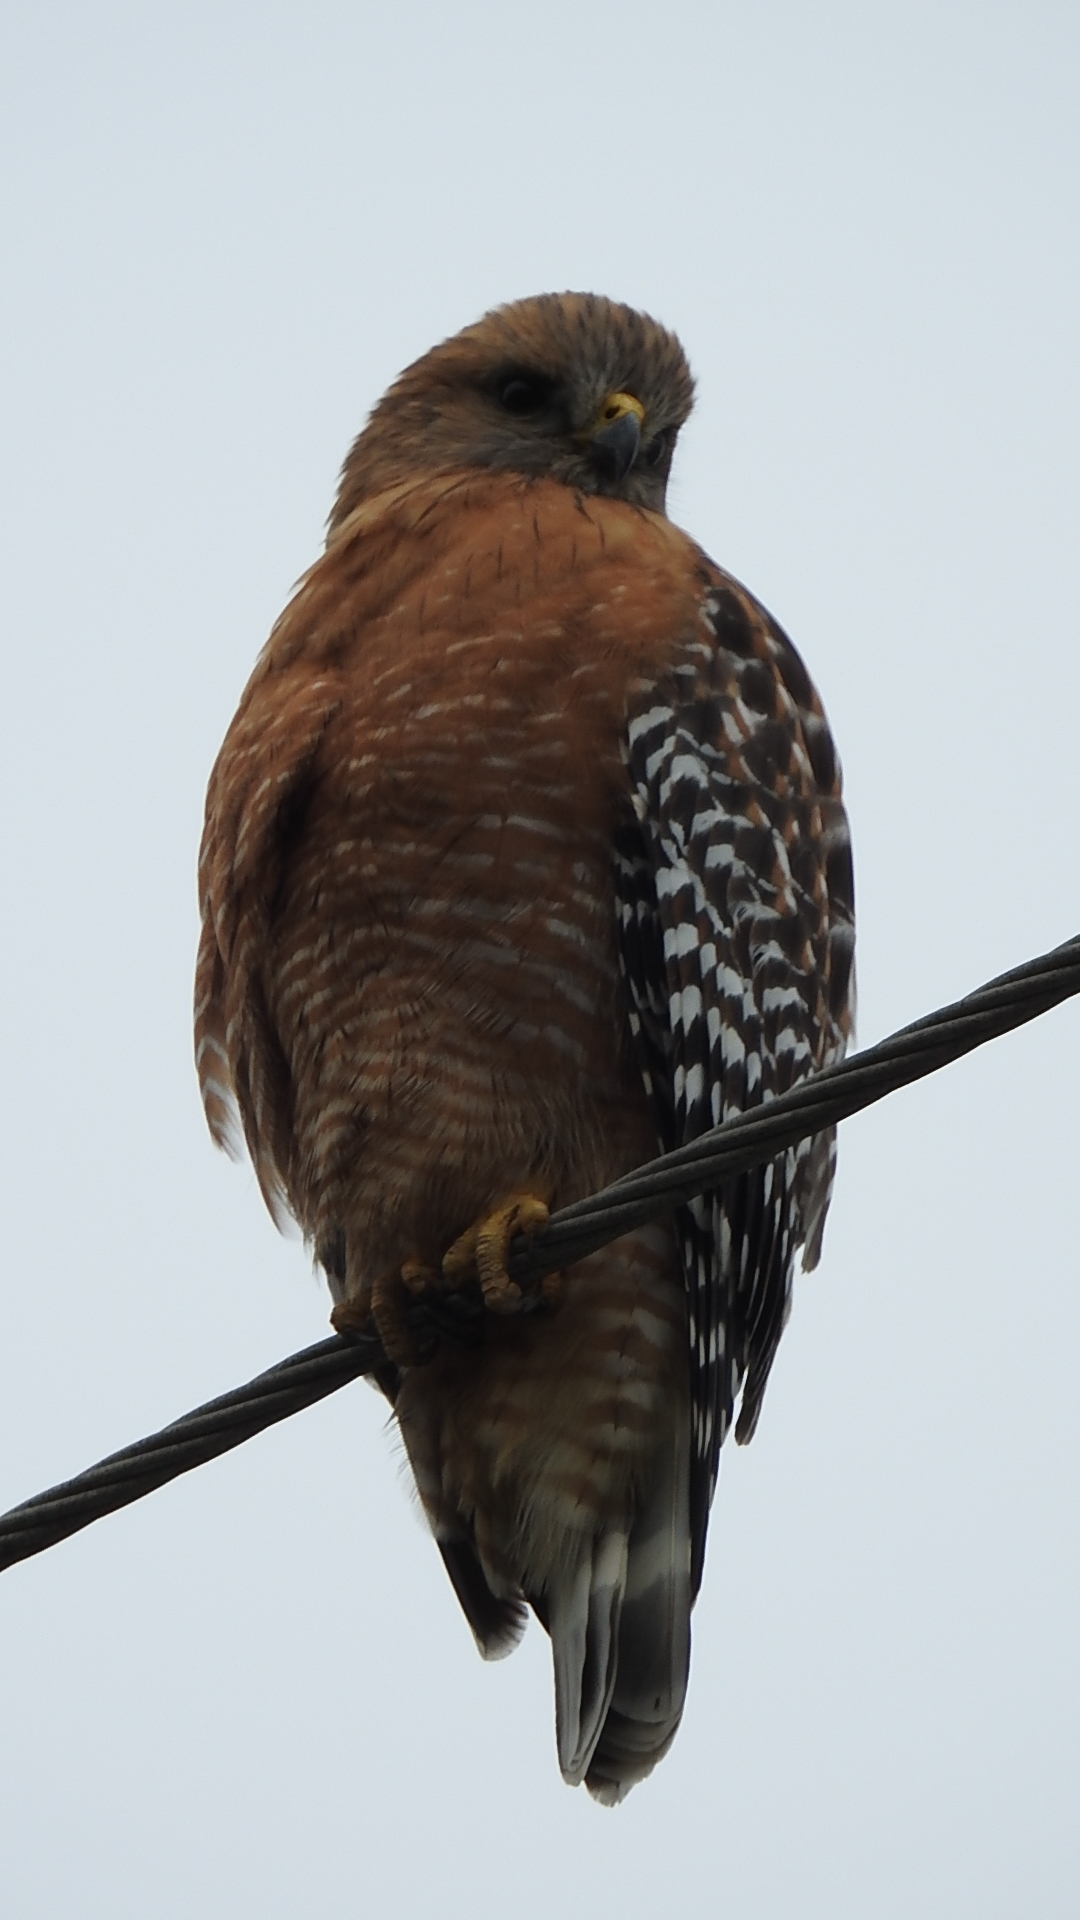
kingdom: Animalia
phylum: Chordata
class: Aves
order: Accipitriformes
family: Accipitridae
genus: Buteo
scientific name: Buteo lineatus
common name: Red-shouldered hawk
